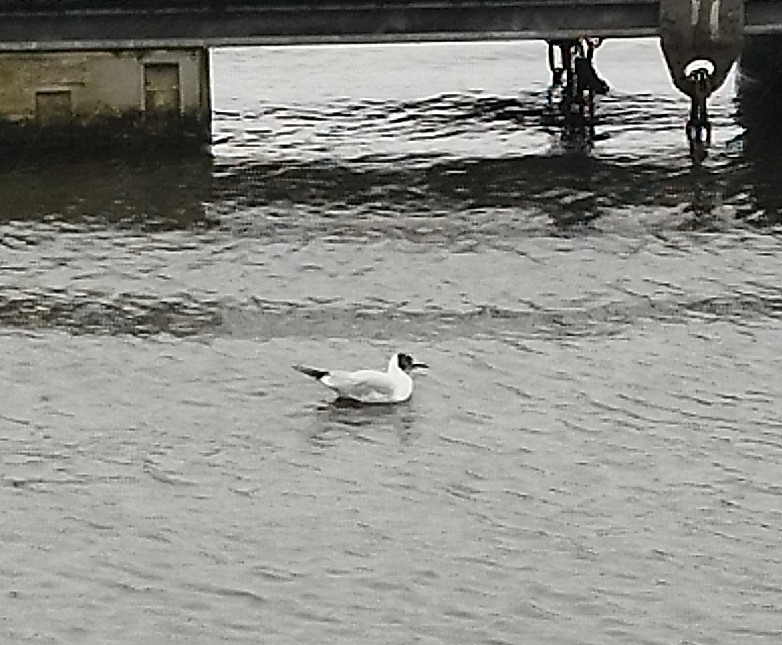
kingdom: Animalia
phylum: Chordata
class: Aves
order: Charadriiformes
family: Laridae
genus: Chroicocephalus
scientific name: Chroicocephalus ridibundus
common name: Black-headed gull
